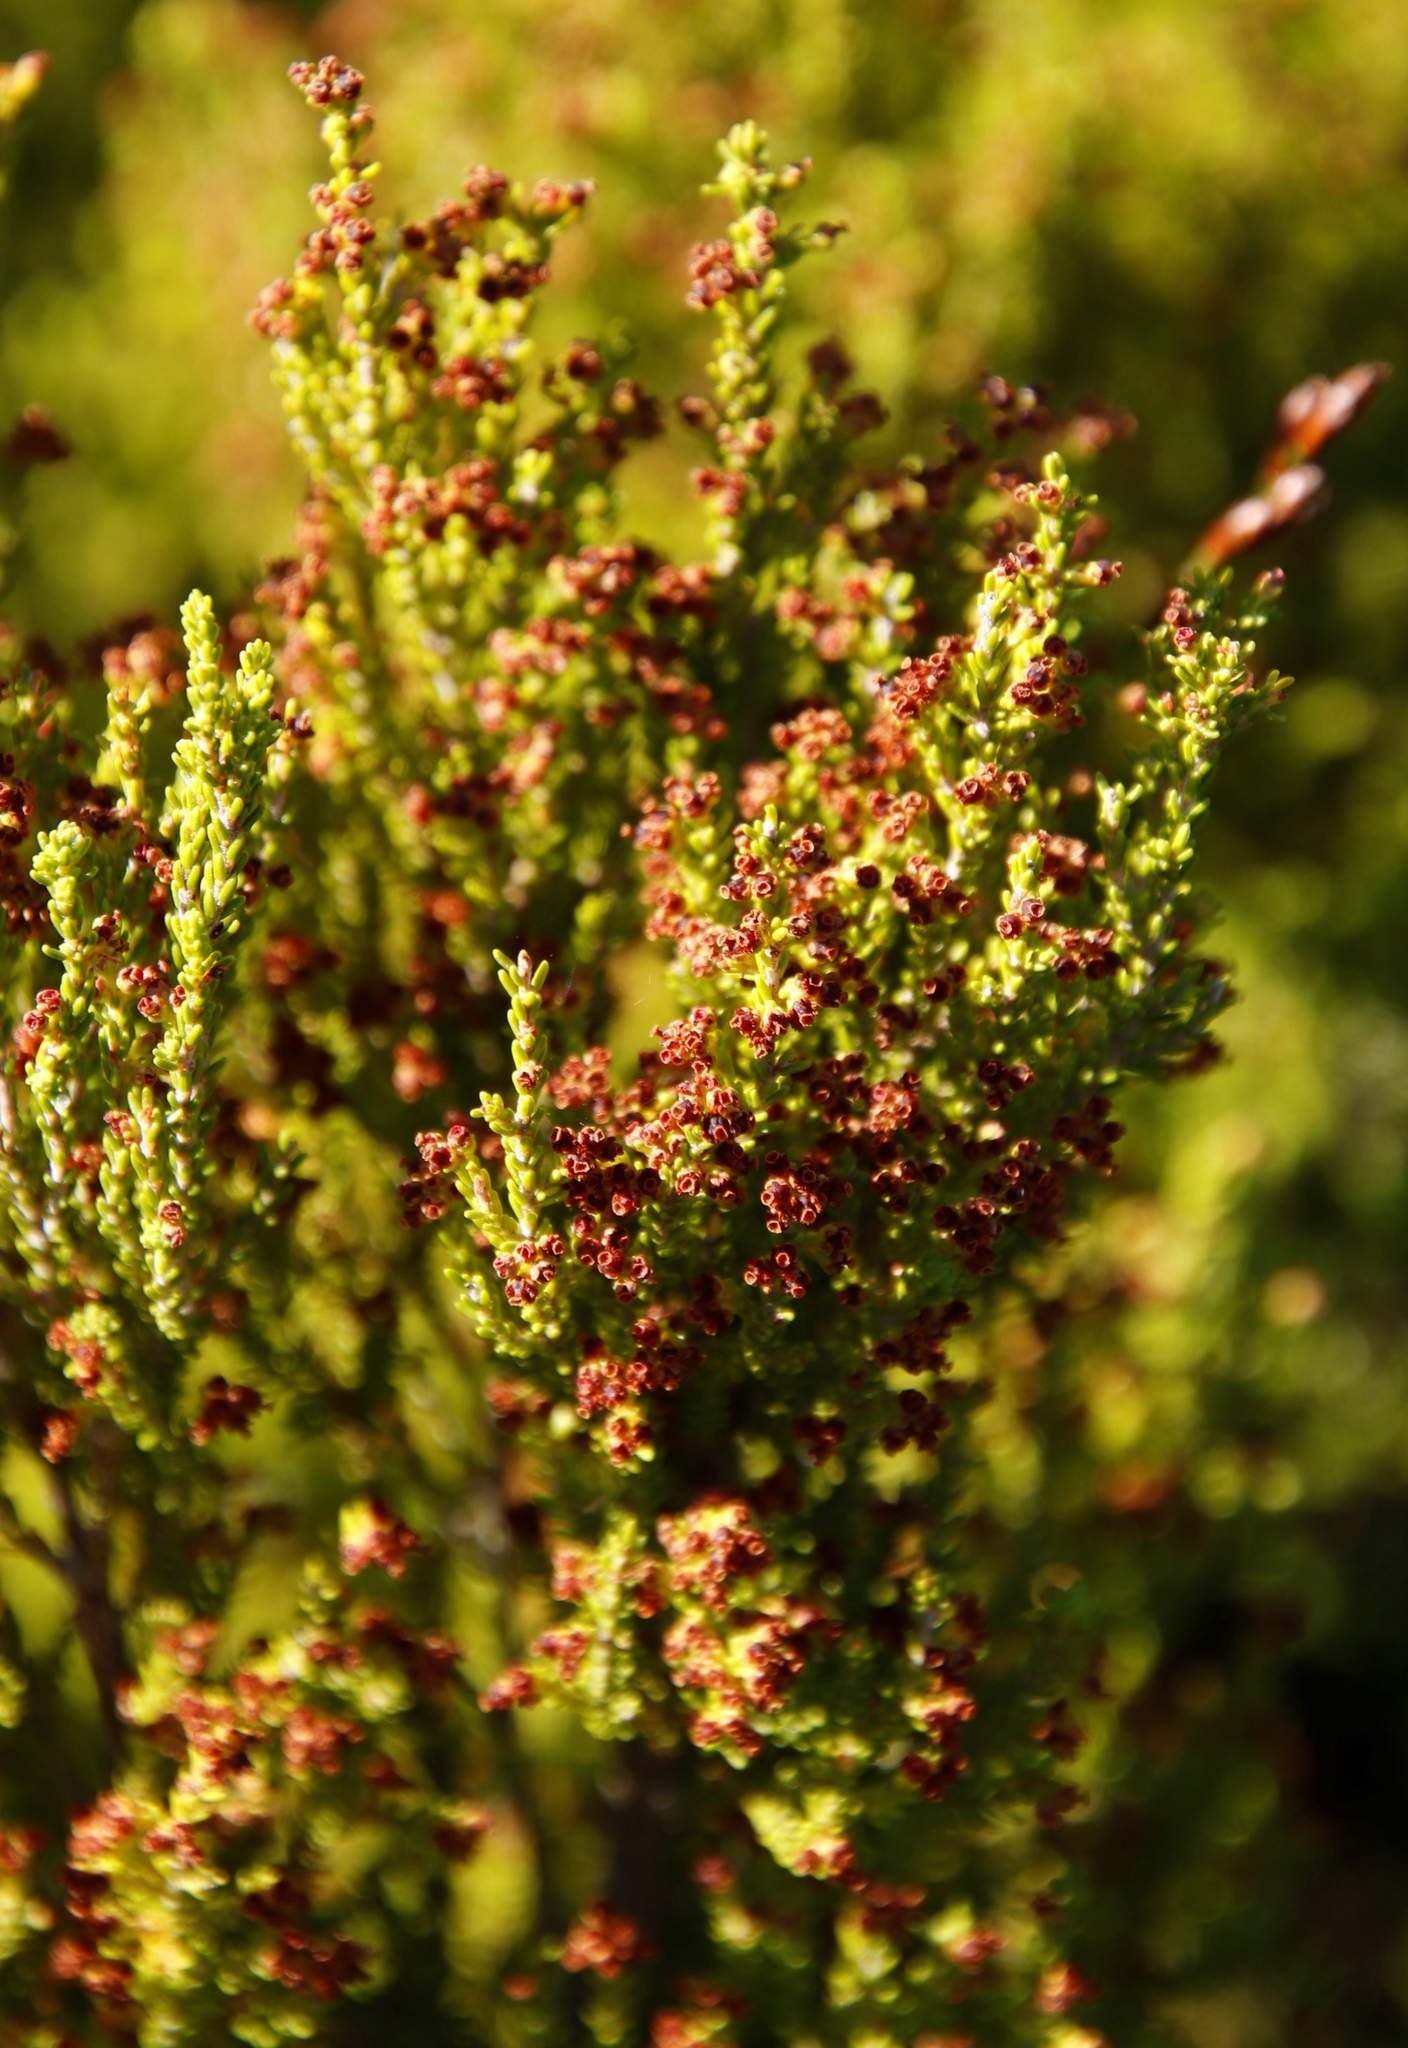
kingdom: Plantae
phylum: Tracheophyta
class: Magnoliopsida
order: Ericales
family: Ericaceae
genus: Erica
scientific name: Erica tristis
